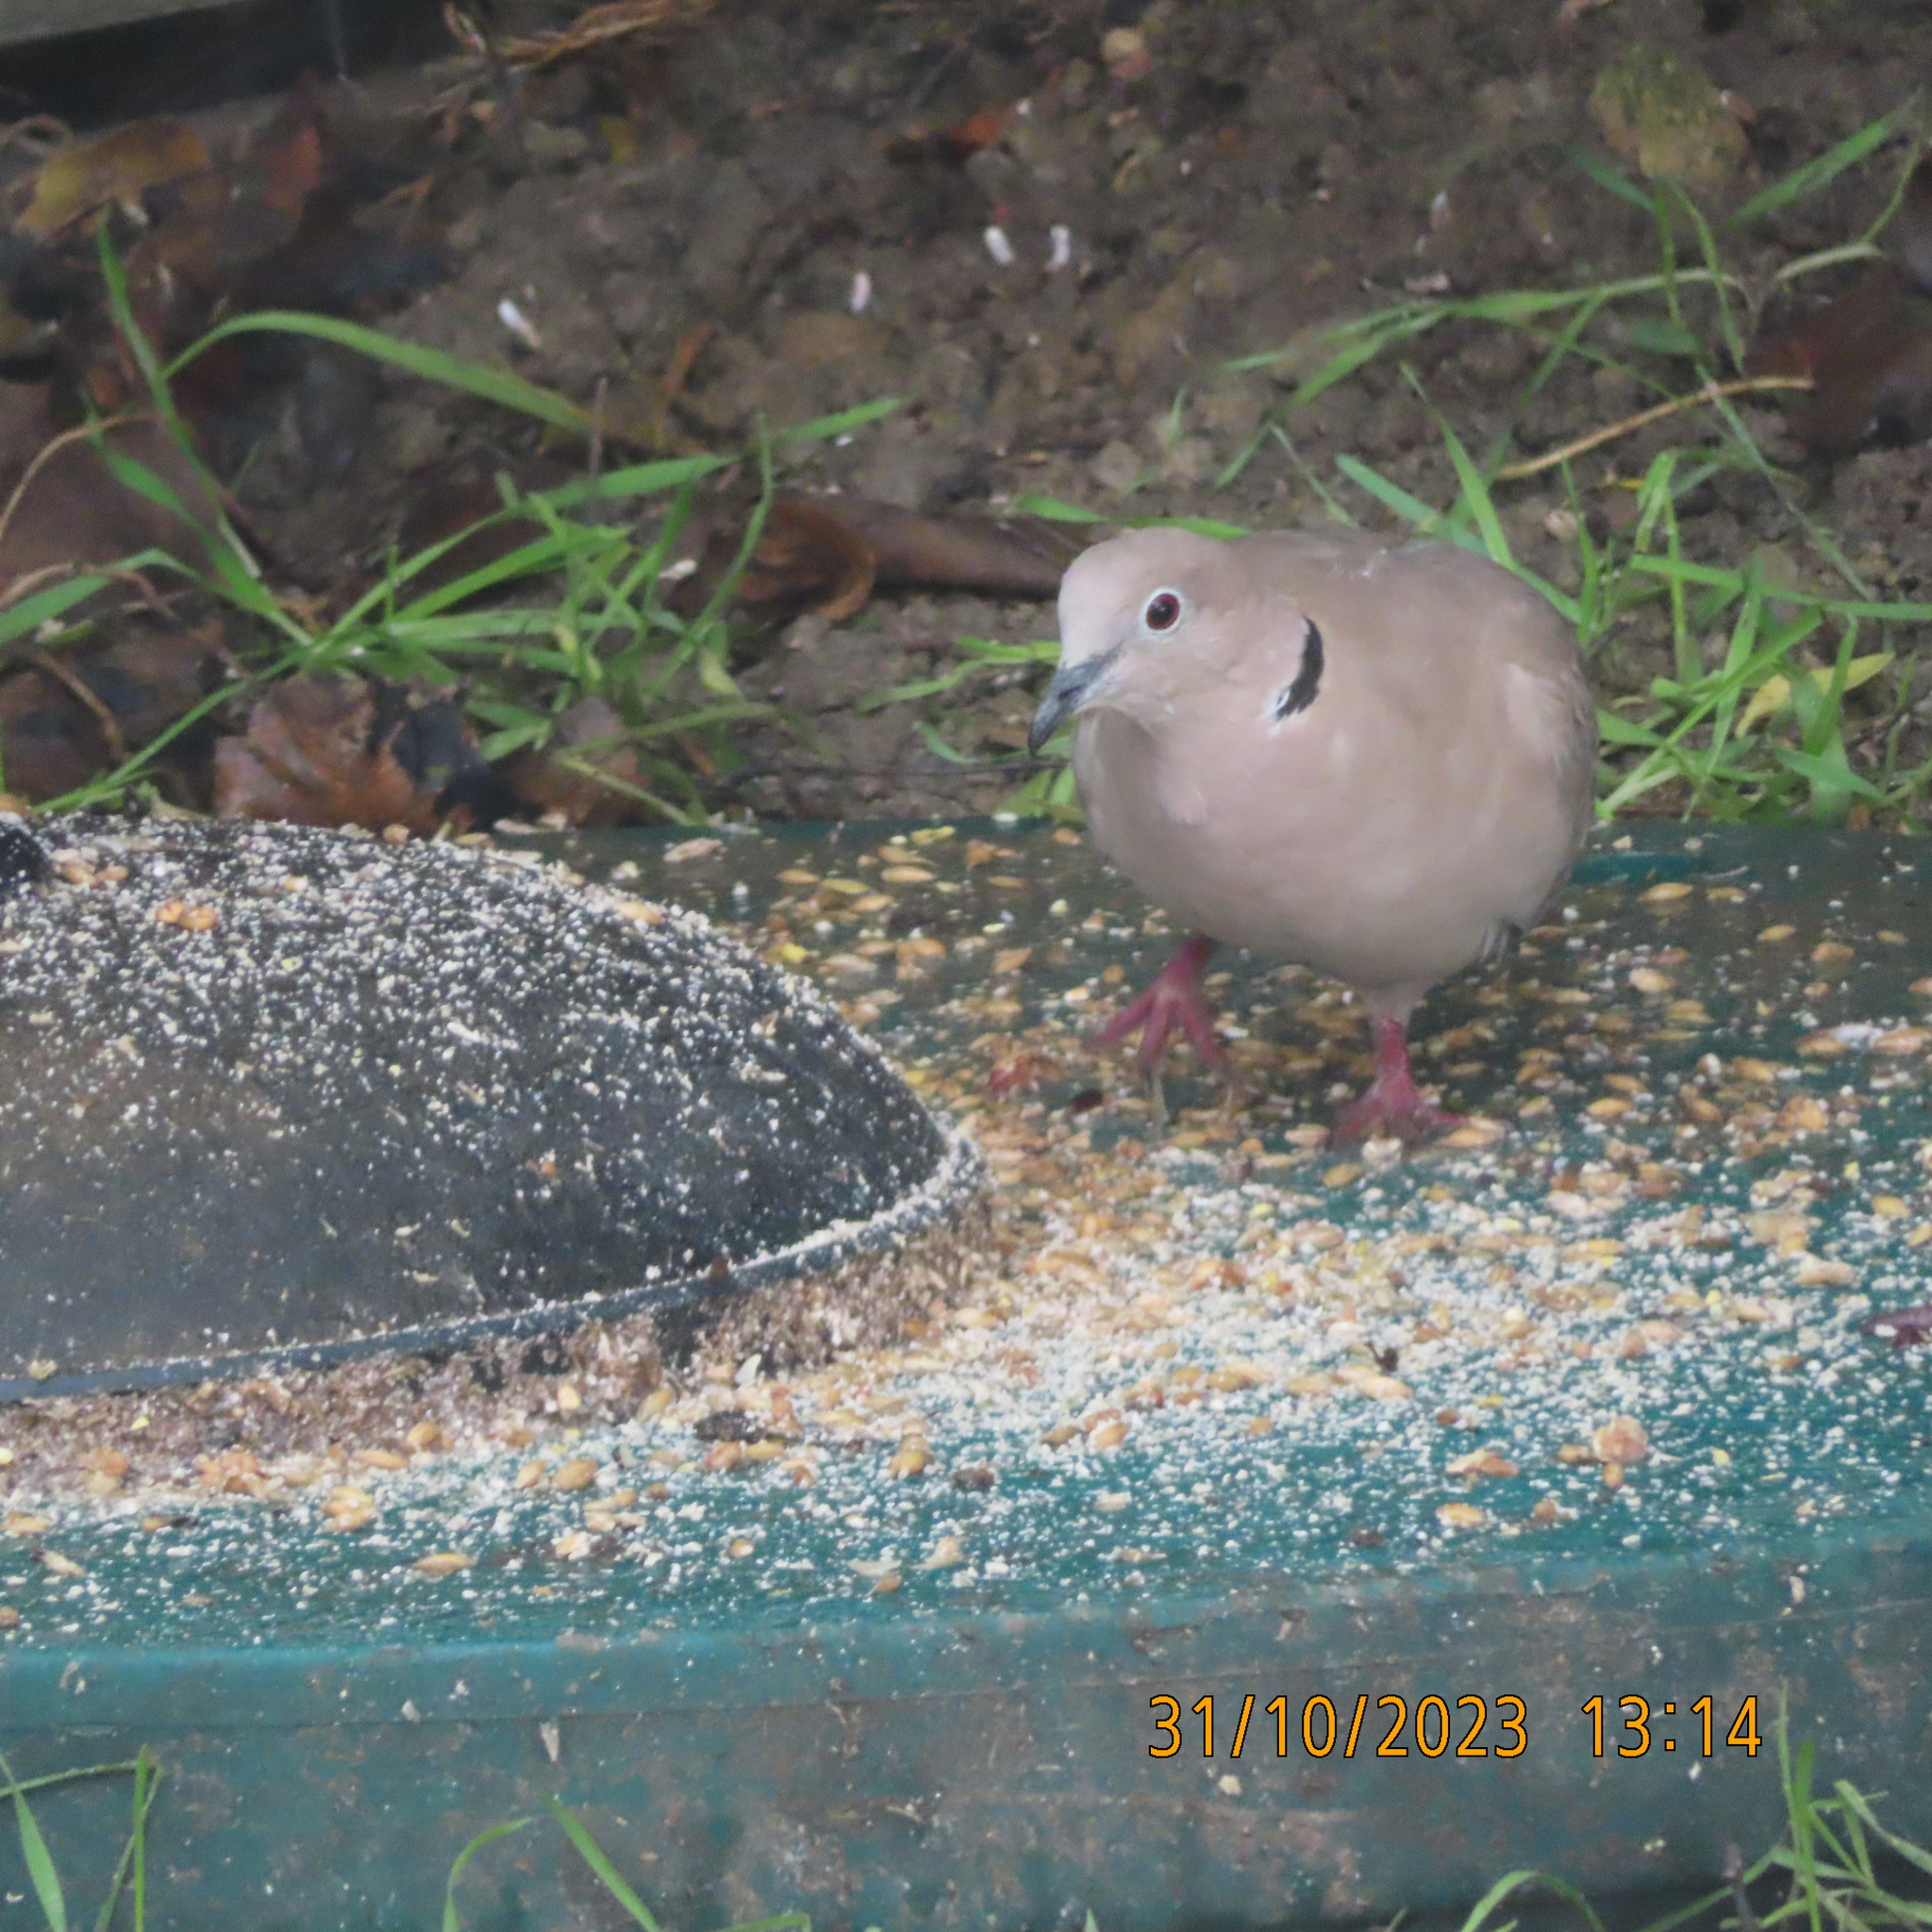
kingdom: Animalia
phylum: Chordata
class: Aves
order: Columbiformes
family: Columbidae
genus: Streptopelia
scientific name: Streptopelia decaocto
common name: Eurasian collared dove
